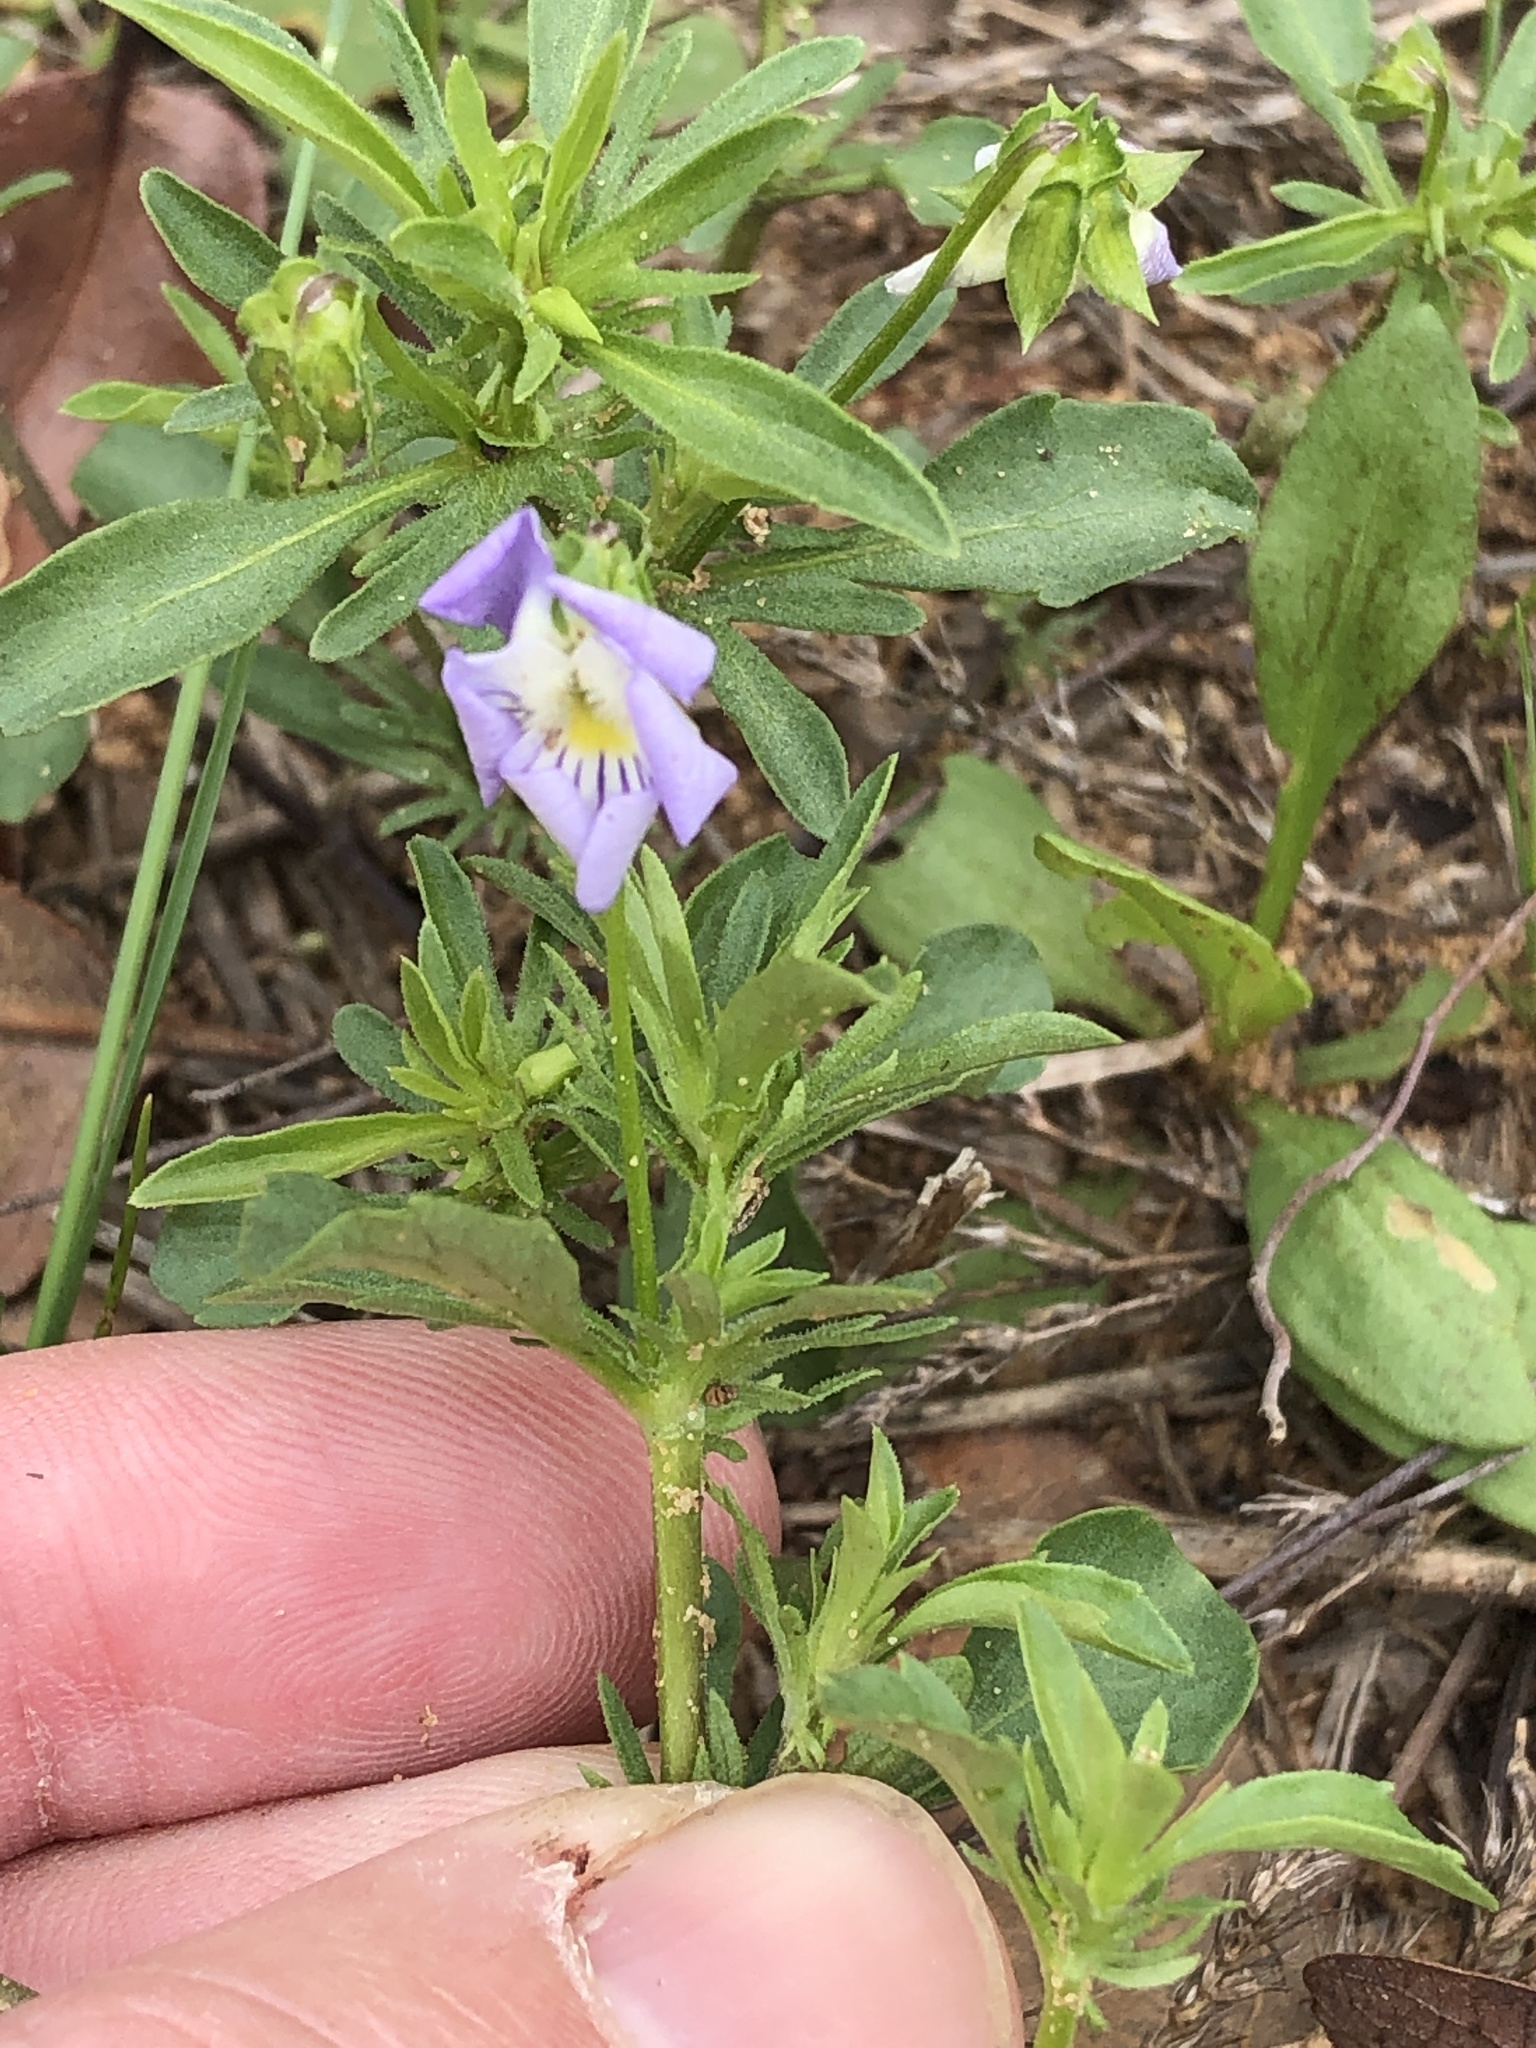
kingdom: Plantae
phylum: Tracheophyta
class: Magnoliopsida
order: Malpighiales
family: Violaceae
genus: Viola
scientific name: Viola rafinesquei
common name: American field pansy
